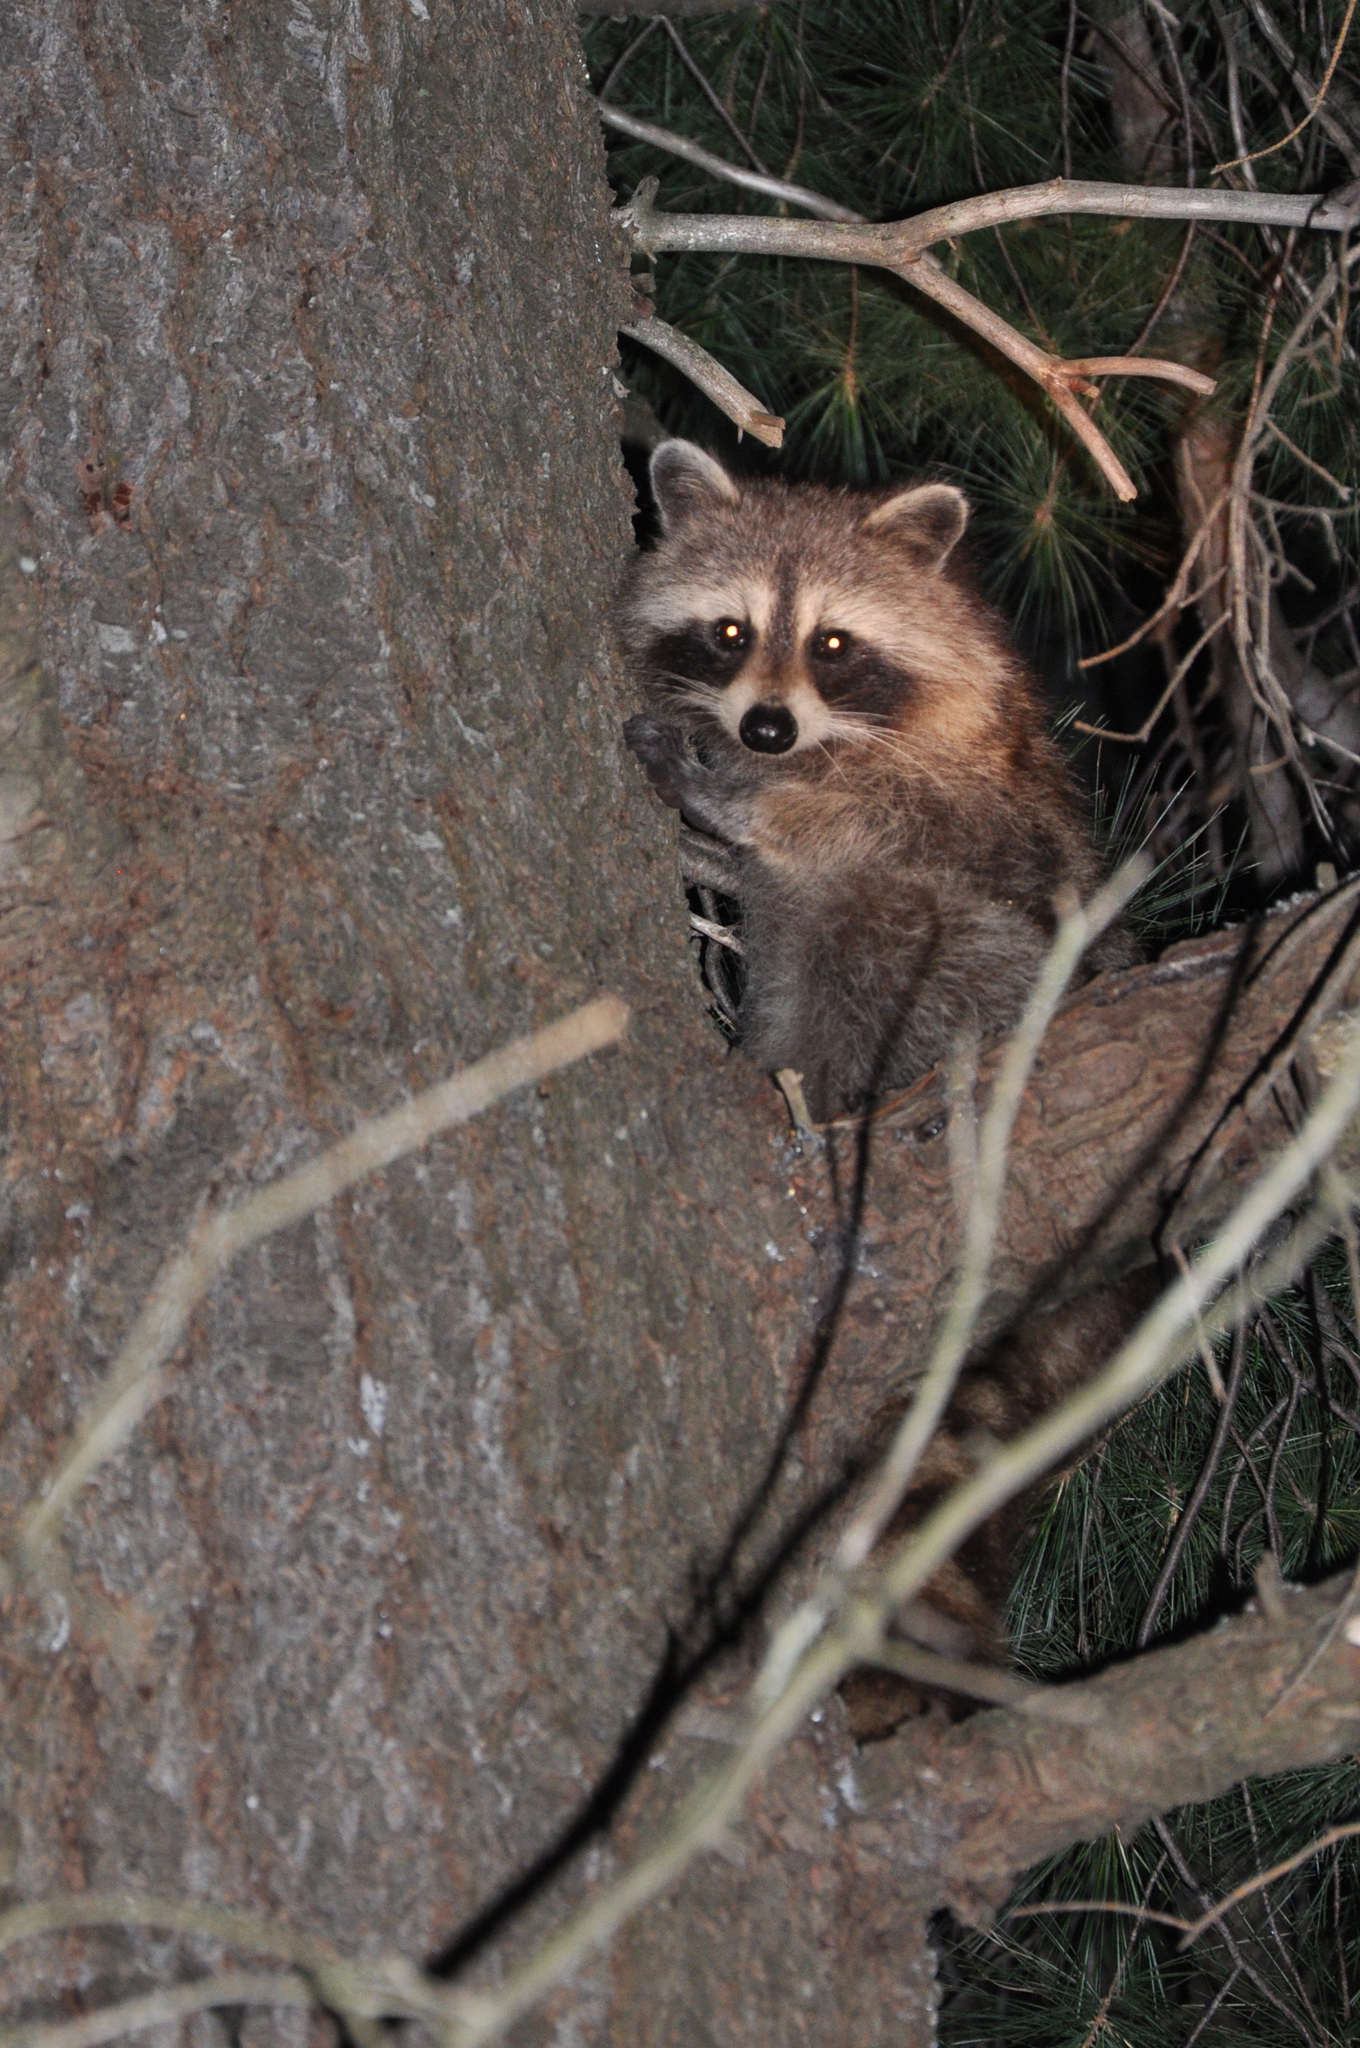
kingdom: Animalia
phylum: Chordata
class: Mammalia
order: Carnivora
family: Procyonidae
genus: Procyon
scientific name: Procyon lotor
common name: Raccoon
